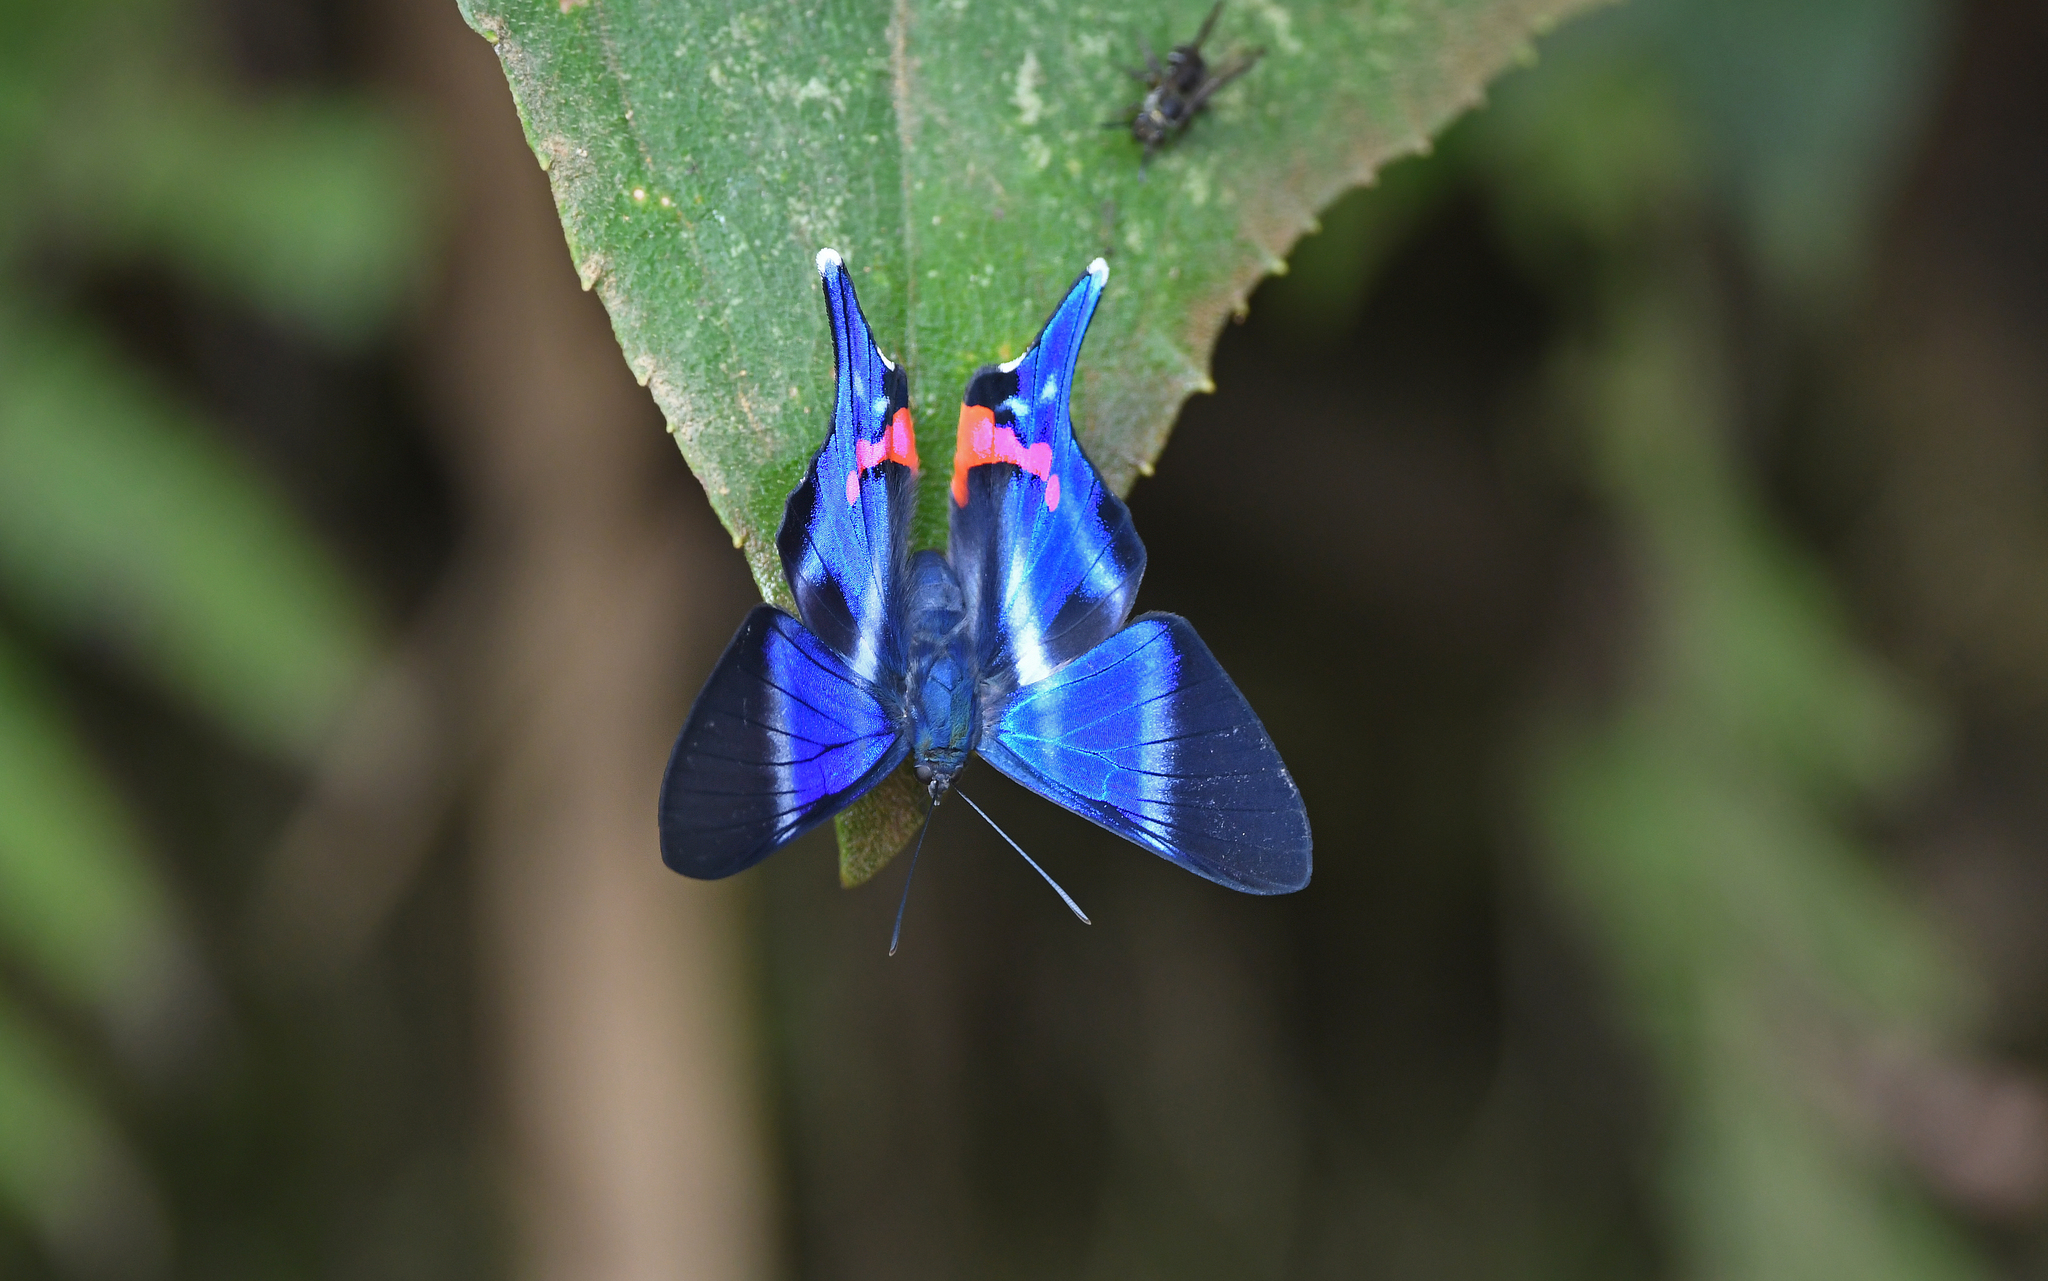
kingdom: Animalia
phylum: Arthropoda
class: Insecta
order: Lepidoptera
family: Riodinidae
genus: Rhetus
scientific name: Rhetus dysonii
